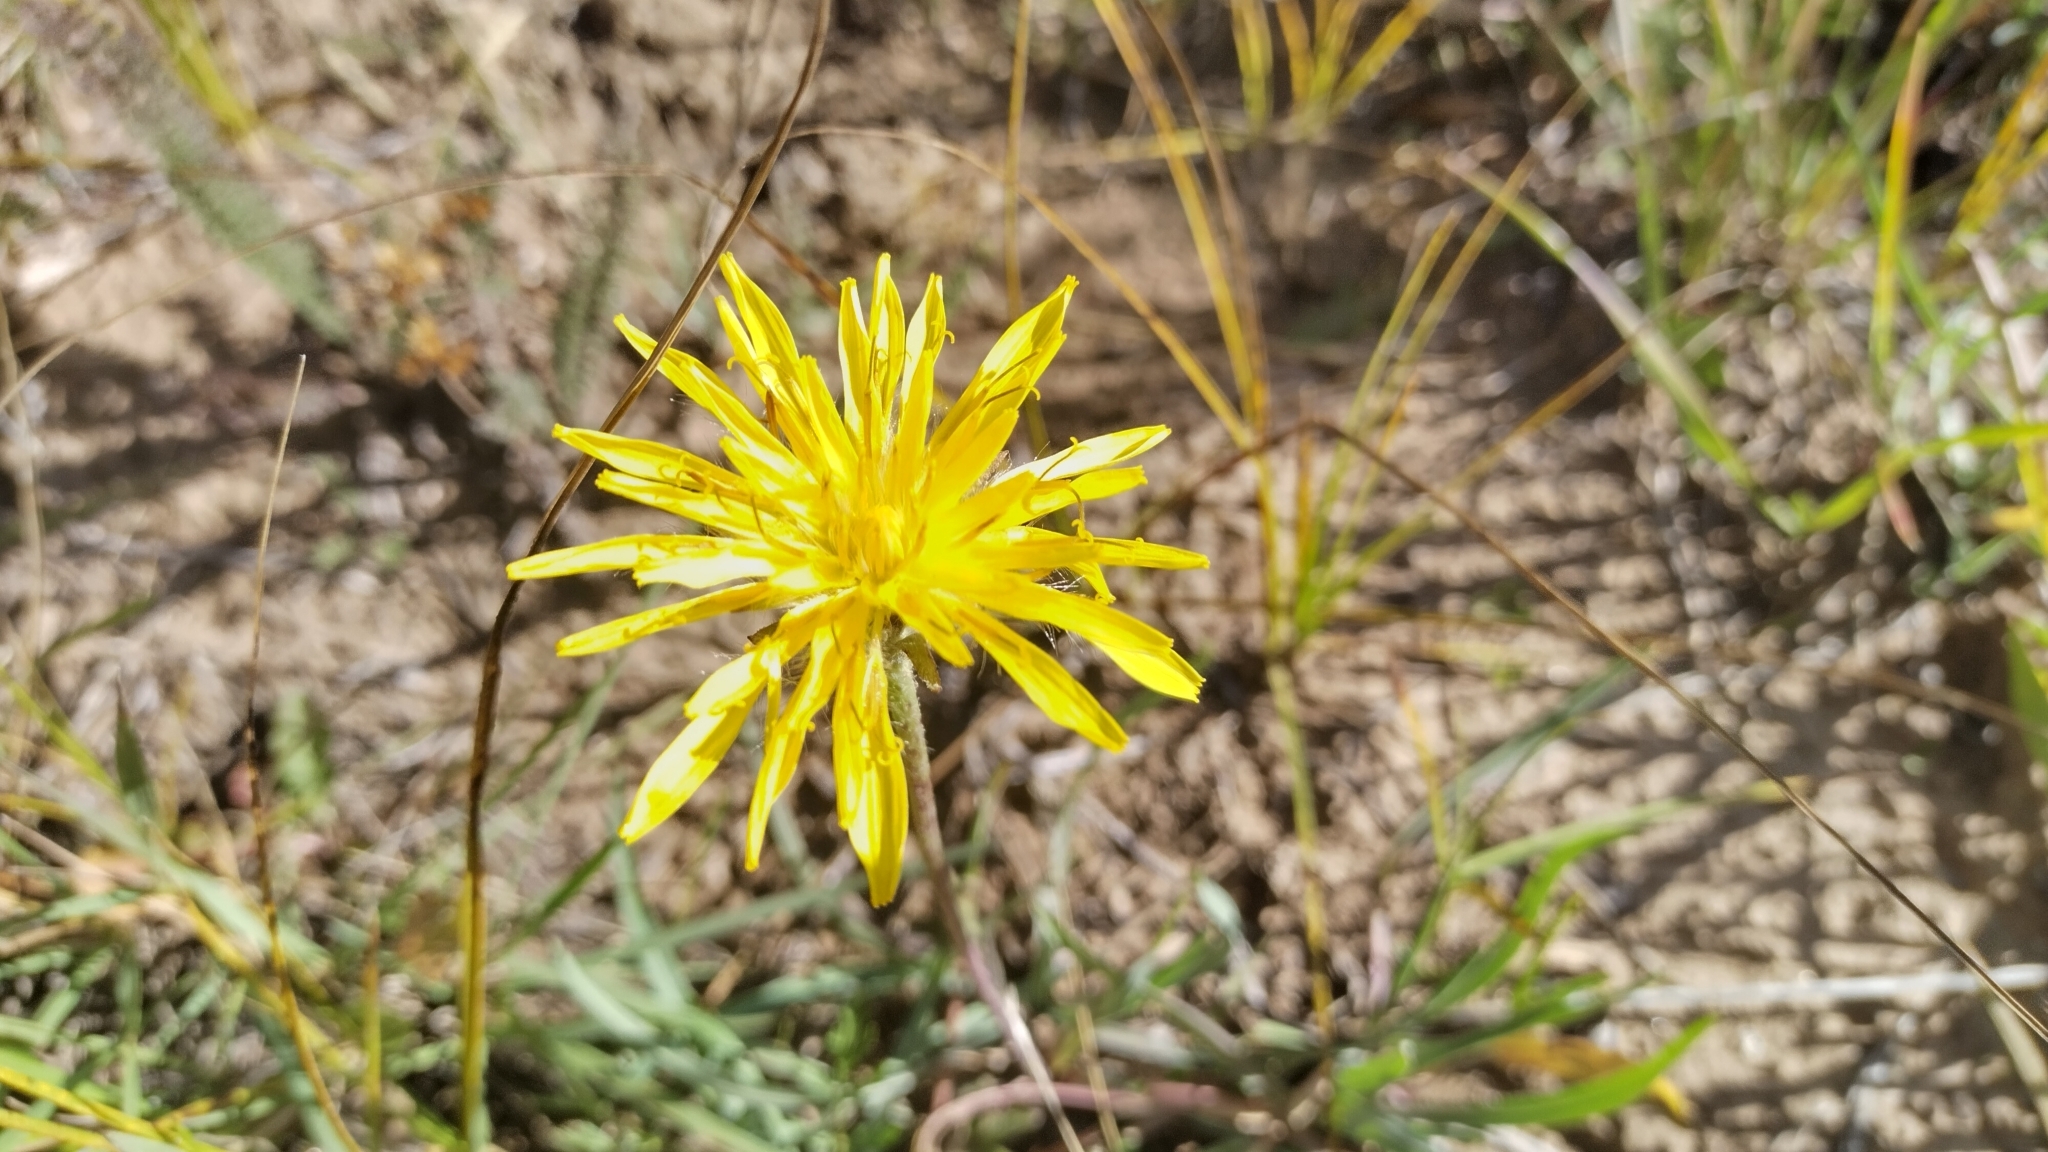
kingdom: Plantae
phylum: Tracheophyta
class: Magnoliopsida
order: Asterales
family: Asteraceae
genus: Agoseris
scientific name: Agoseris glauca
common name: Prairie agoseris
